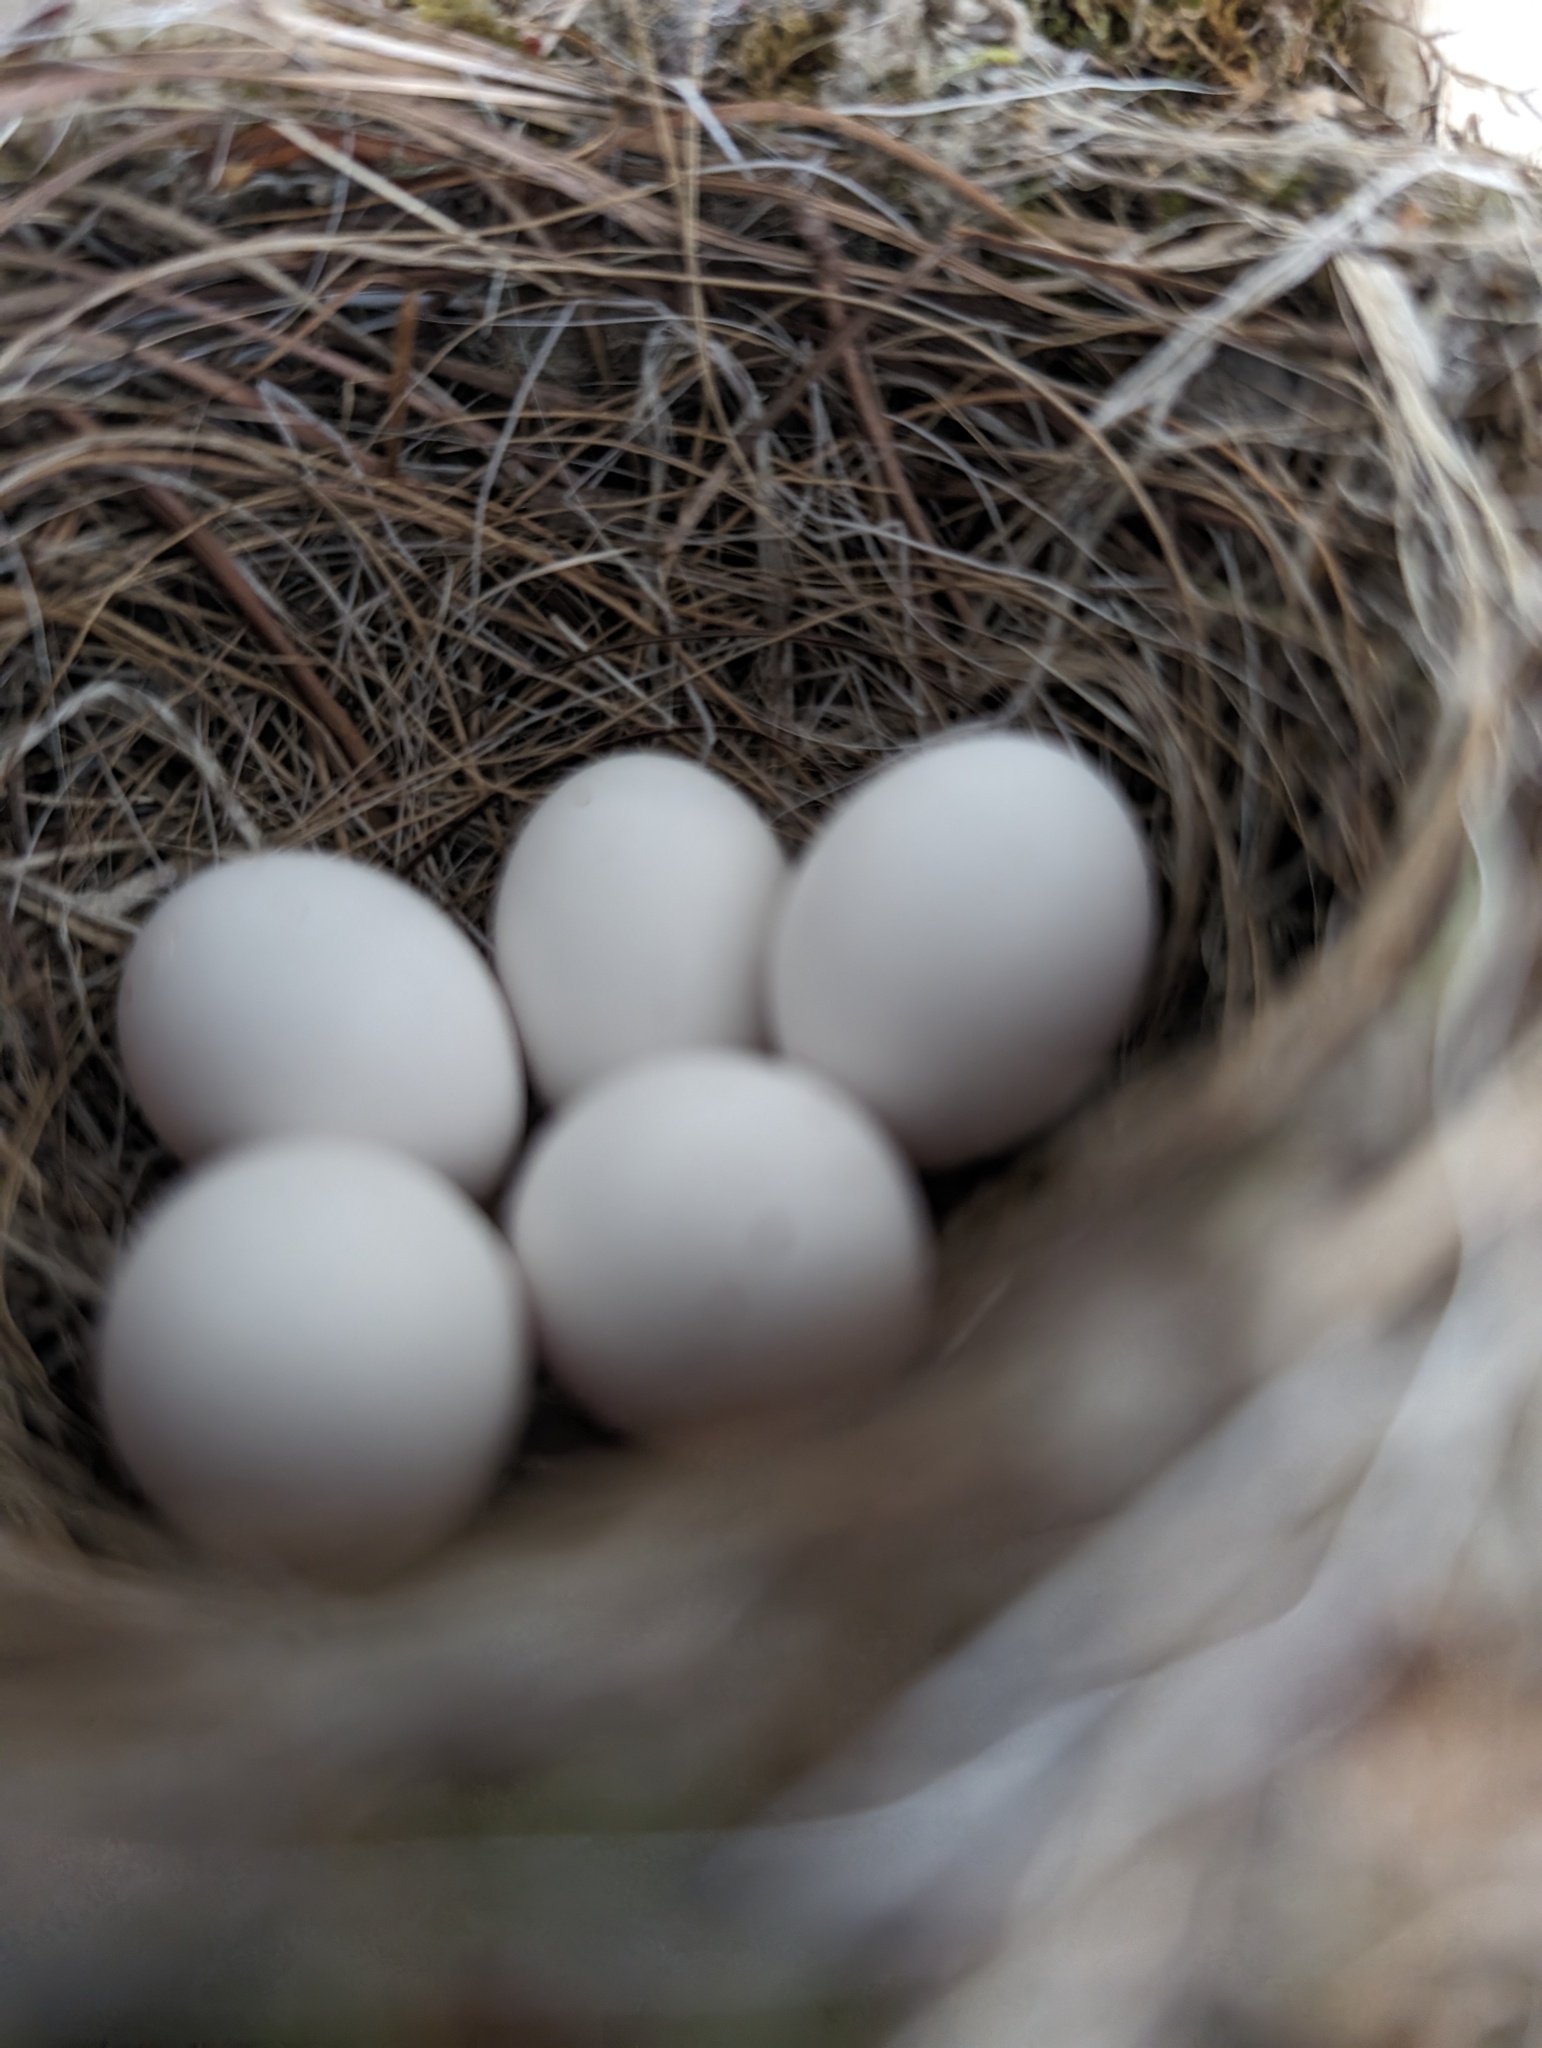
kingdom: Animalia
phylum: Chordata
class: Aves
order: Passeriformes
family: Tyrannidae
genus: Sayornis
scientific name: Sayornis phoebe
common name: Eastern phoebe
